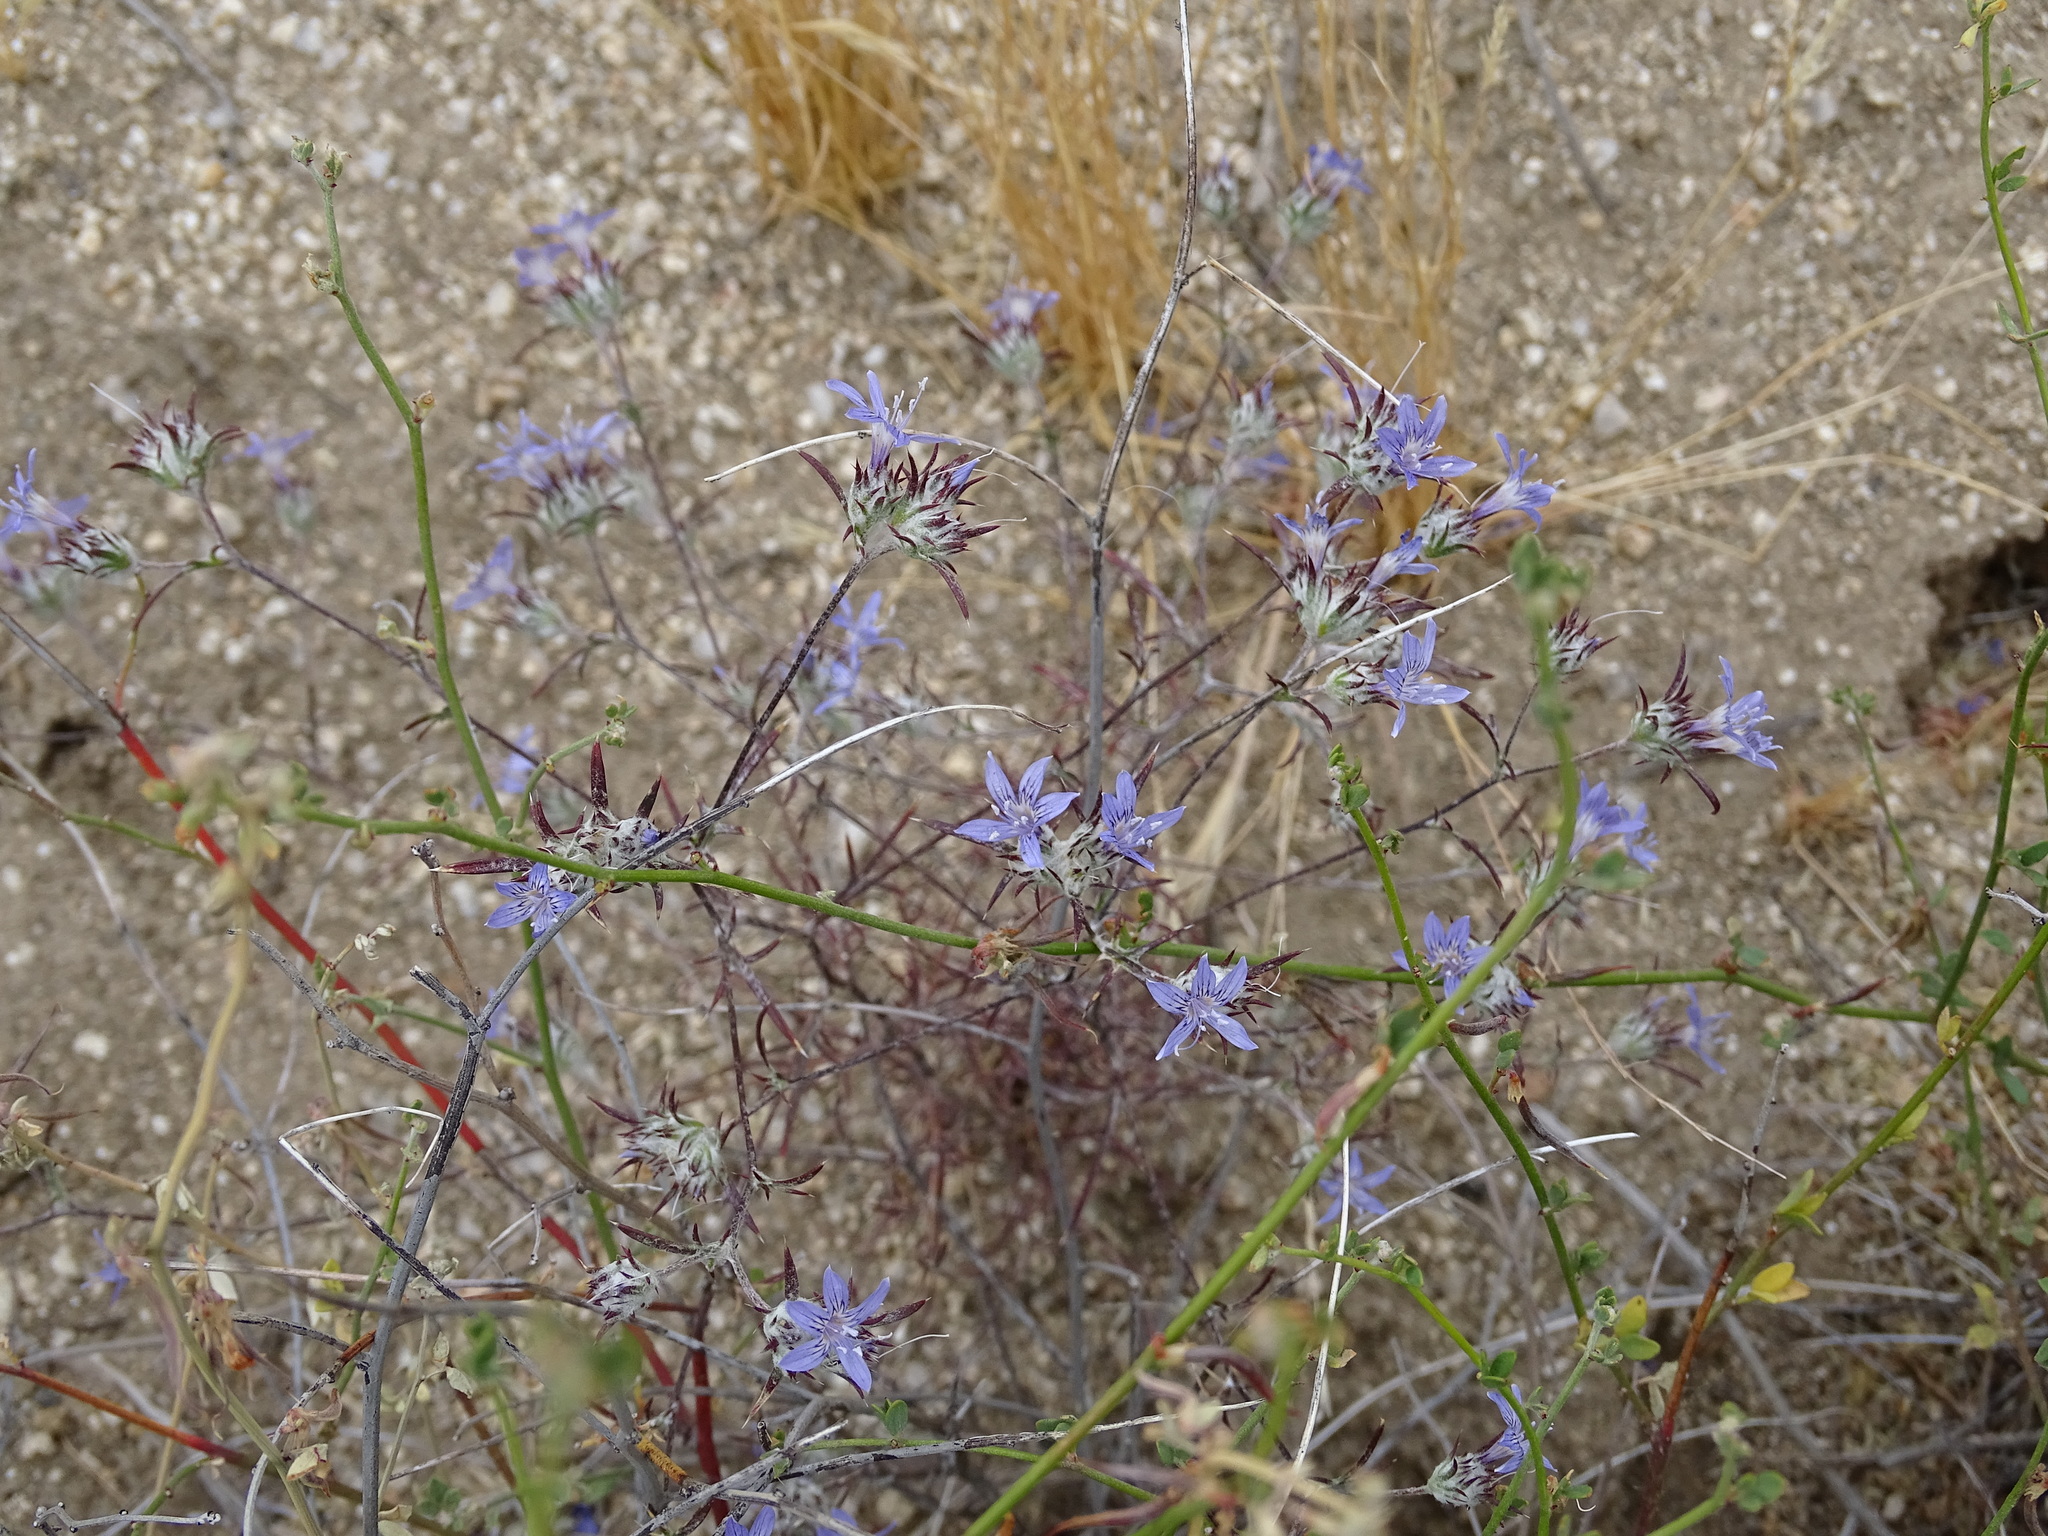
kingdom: Plantae
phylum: Tracheophyta
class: Magnoliopsida
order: Ericales
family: Polemoniaceae
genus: Eriastrum
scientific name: Eriastrum eremicum
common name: Desert eriastrum
